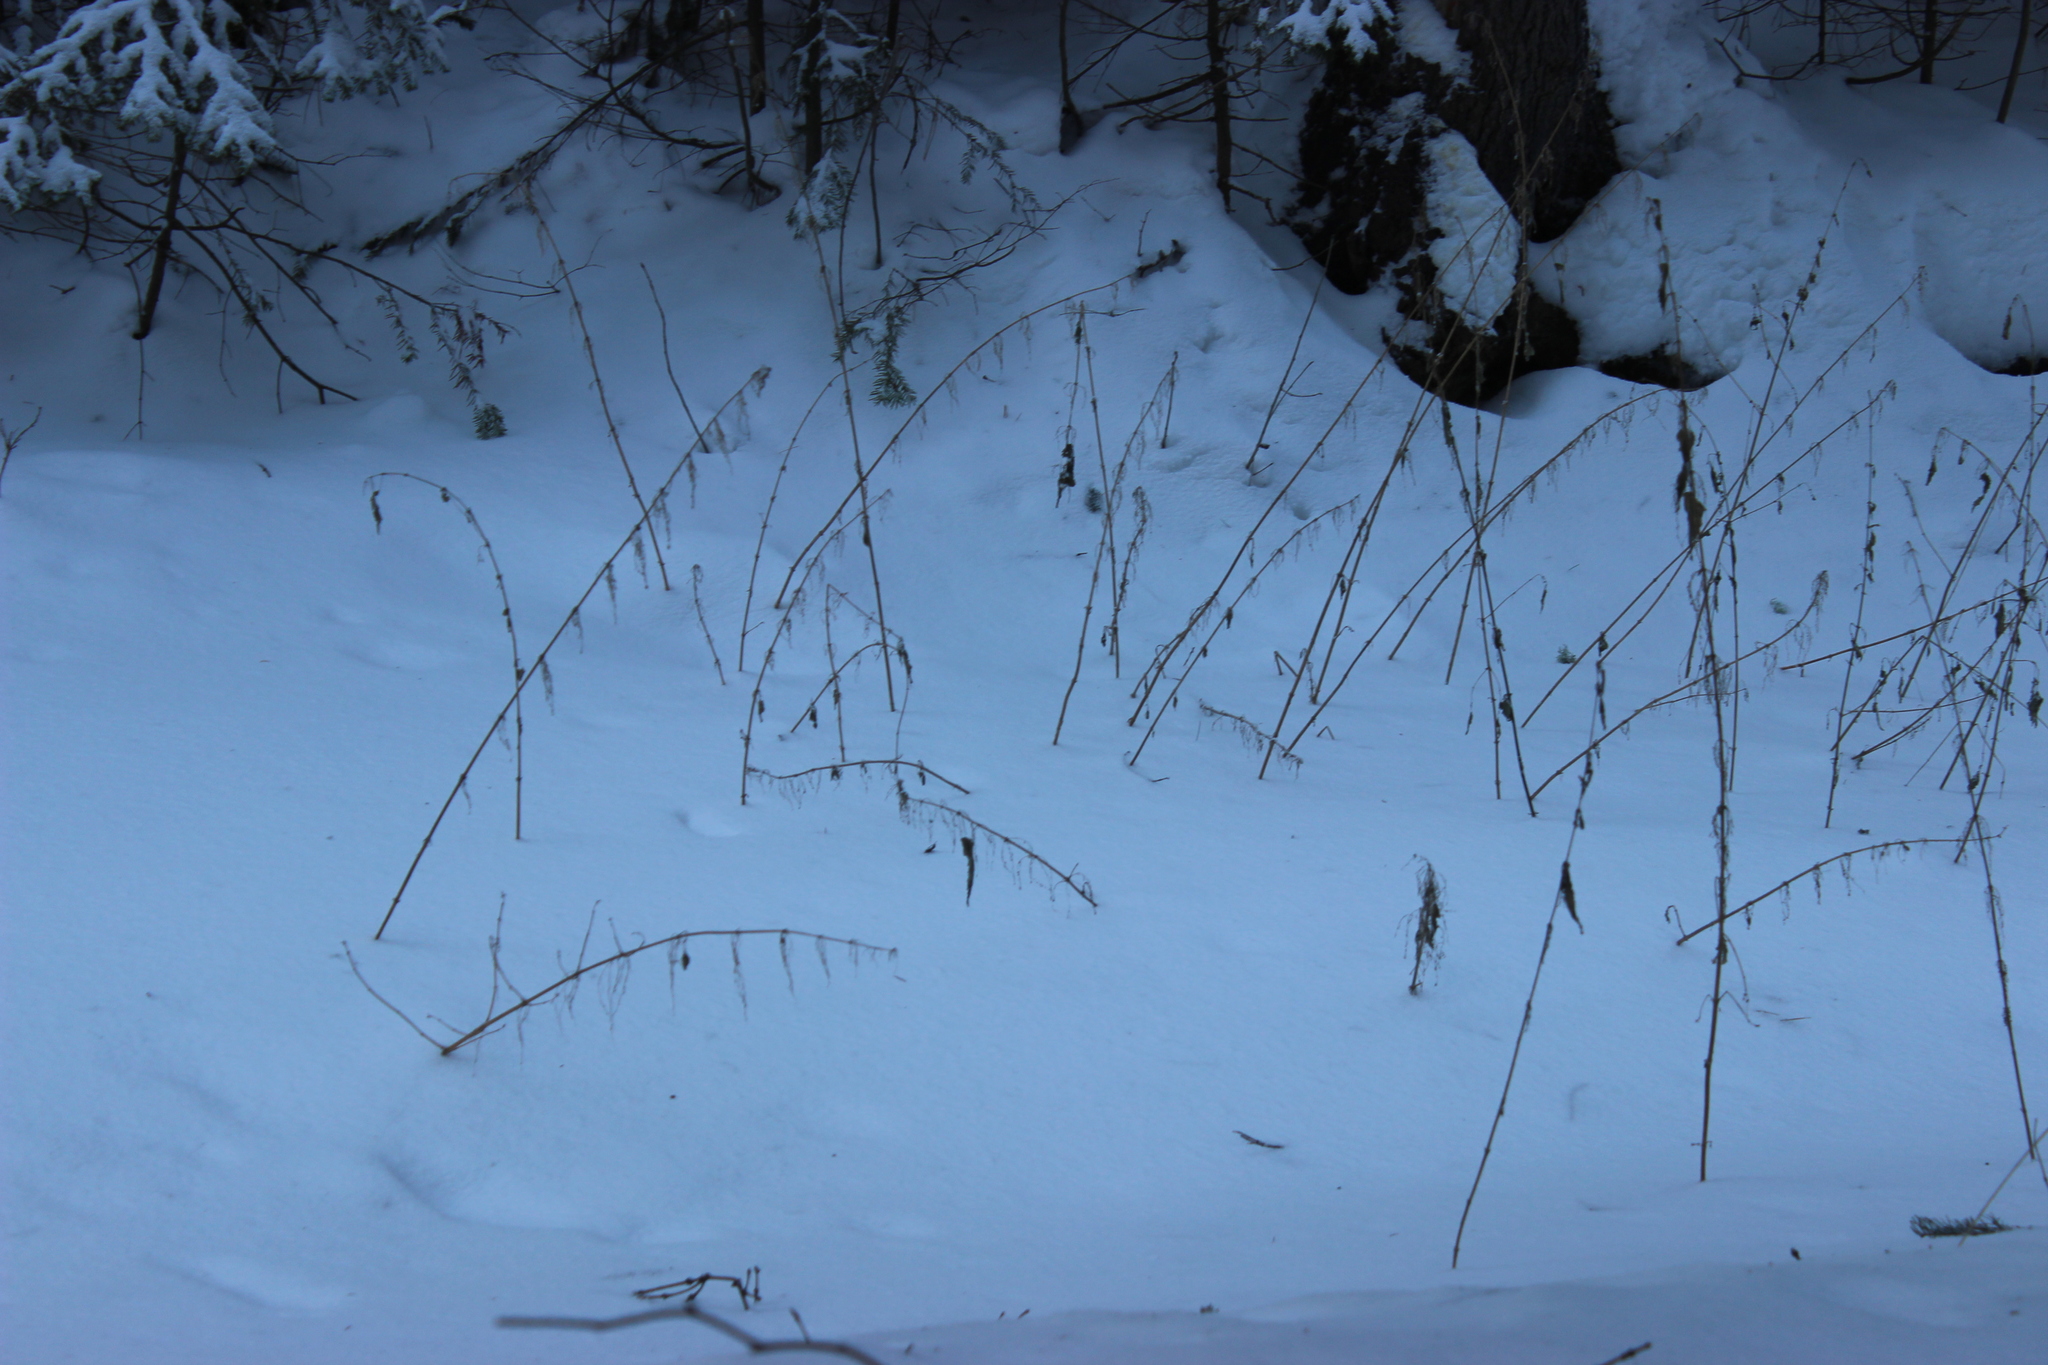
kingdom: Plantae
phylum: Tracheophyta
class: Magnoliopsida
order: Rosales
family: Urticaceae
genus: Urtica
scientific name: Urtica dioica
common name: Common nettle
